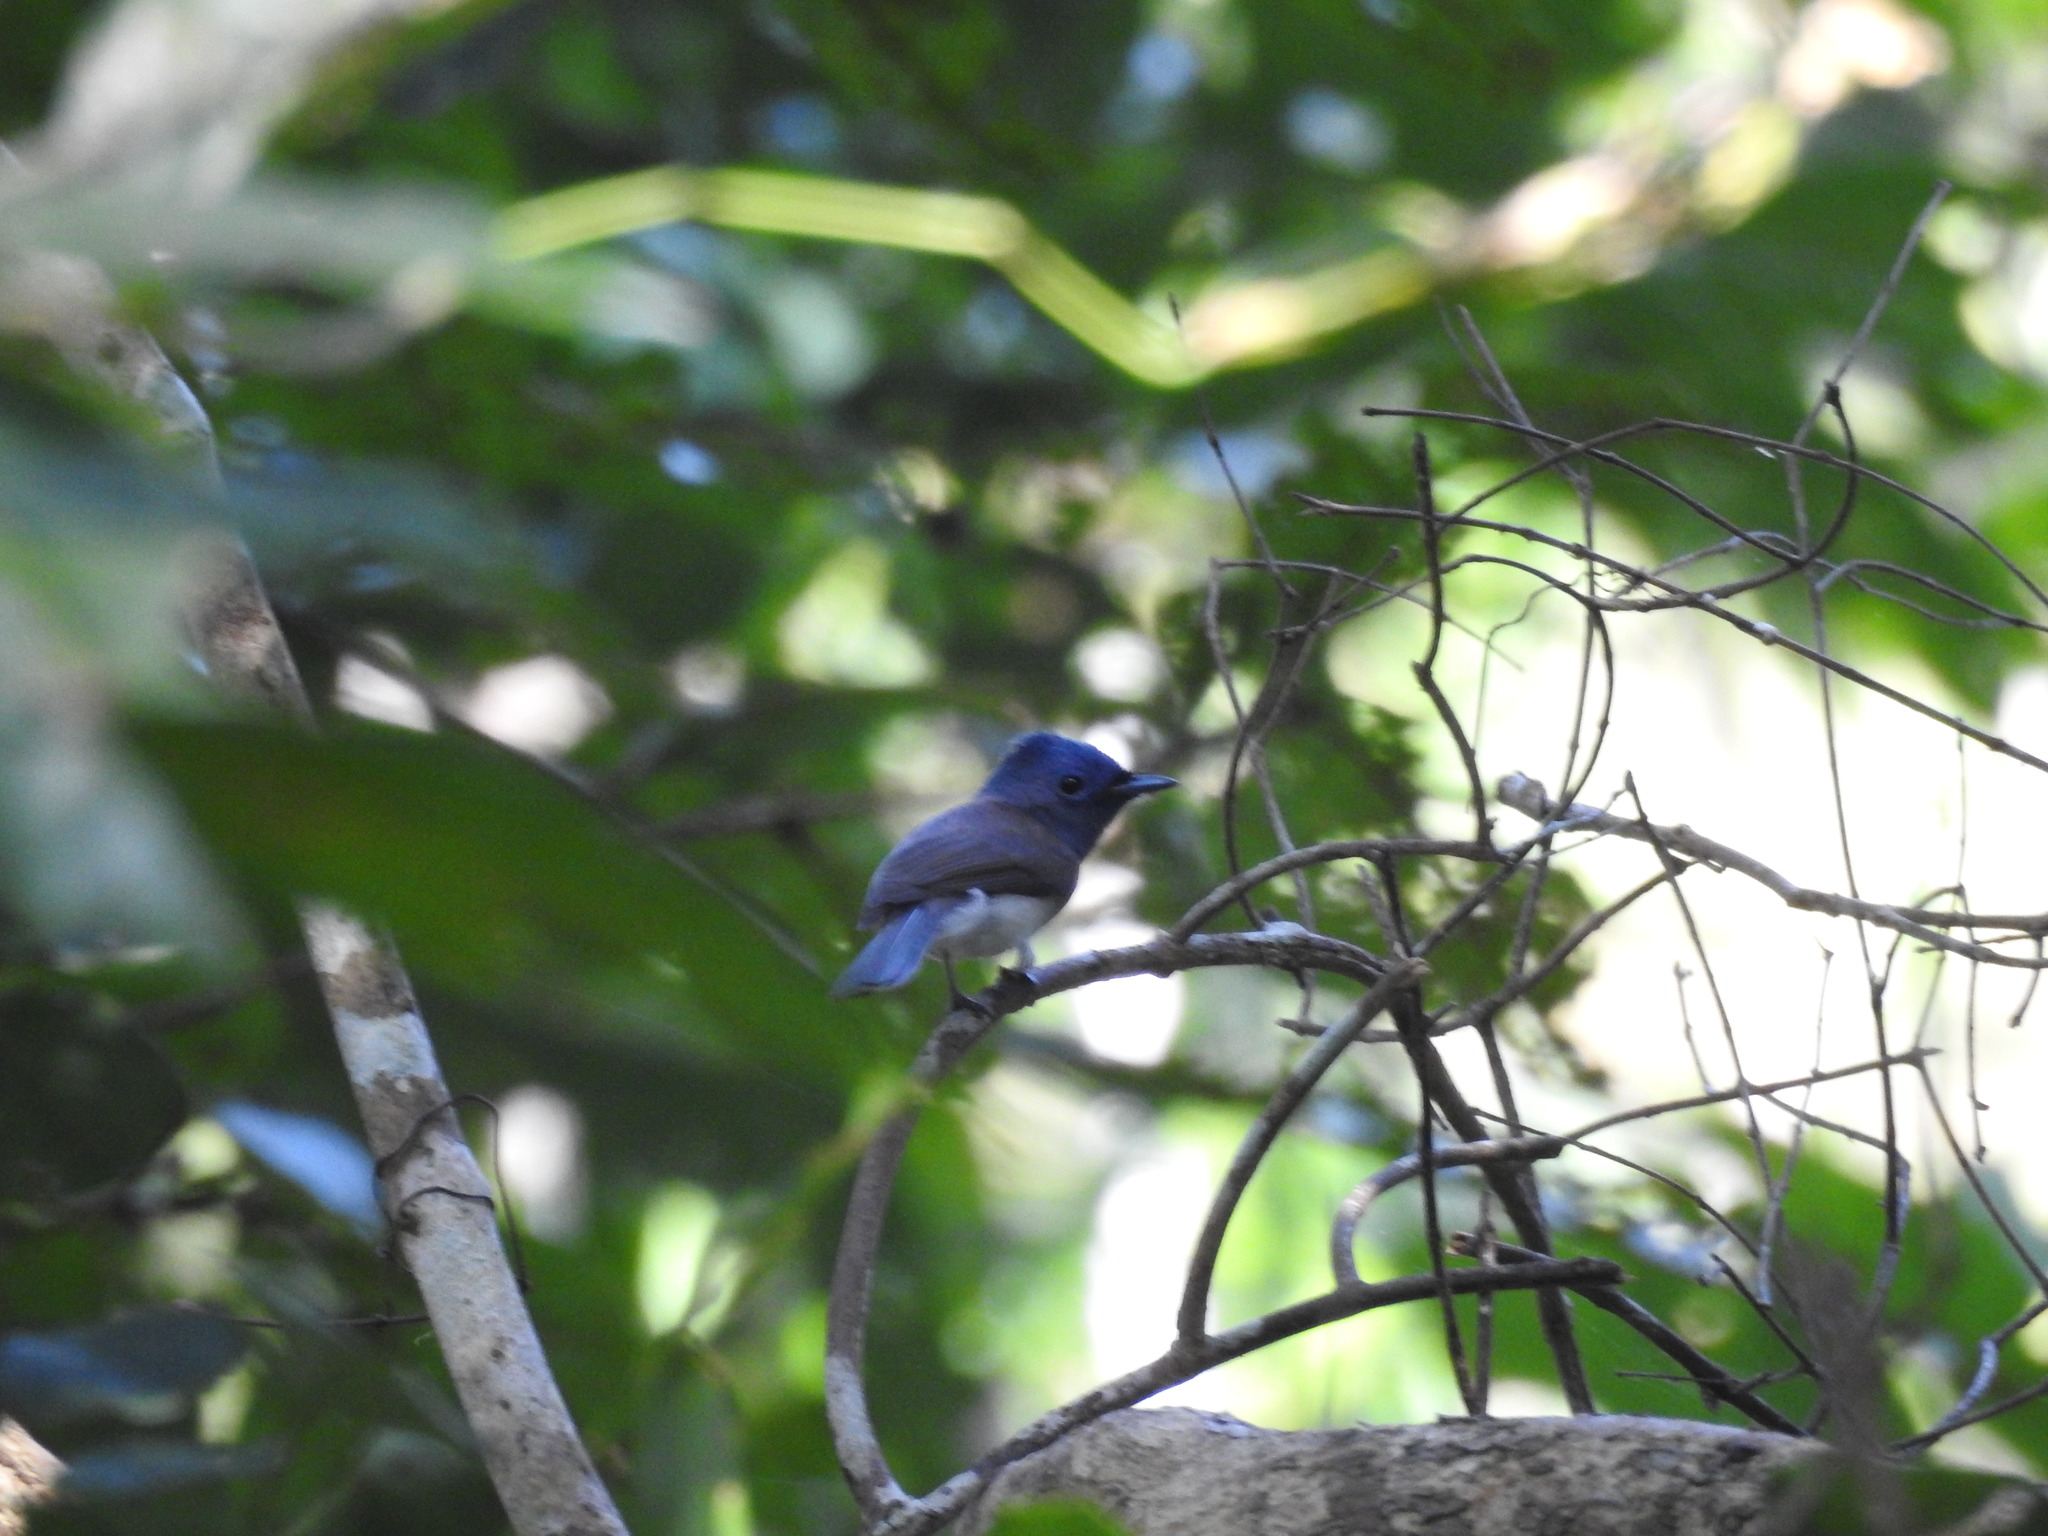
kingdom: Animalia
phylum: Chordata
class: Aves
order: Passeriformes
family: Monarchidae
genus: Hypothymis
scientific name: Hypothymis azurea
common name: Black-naped monarch
